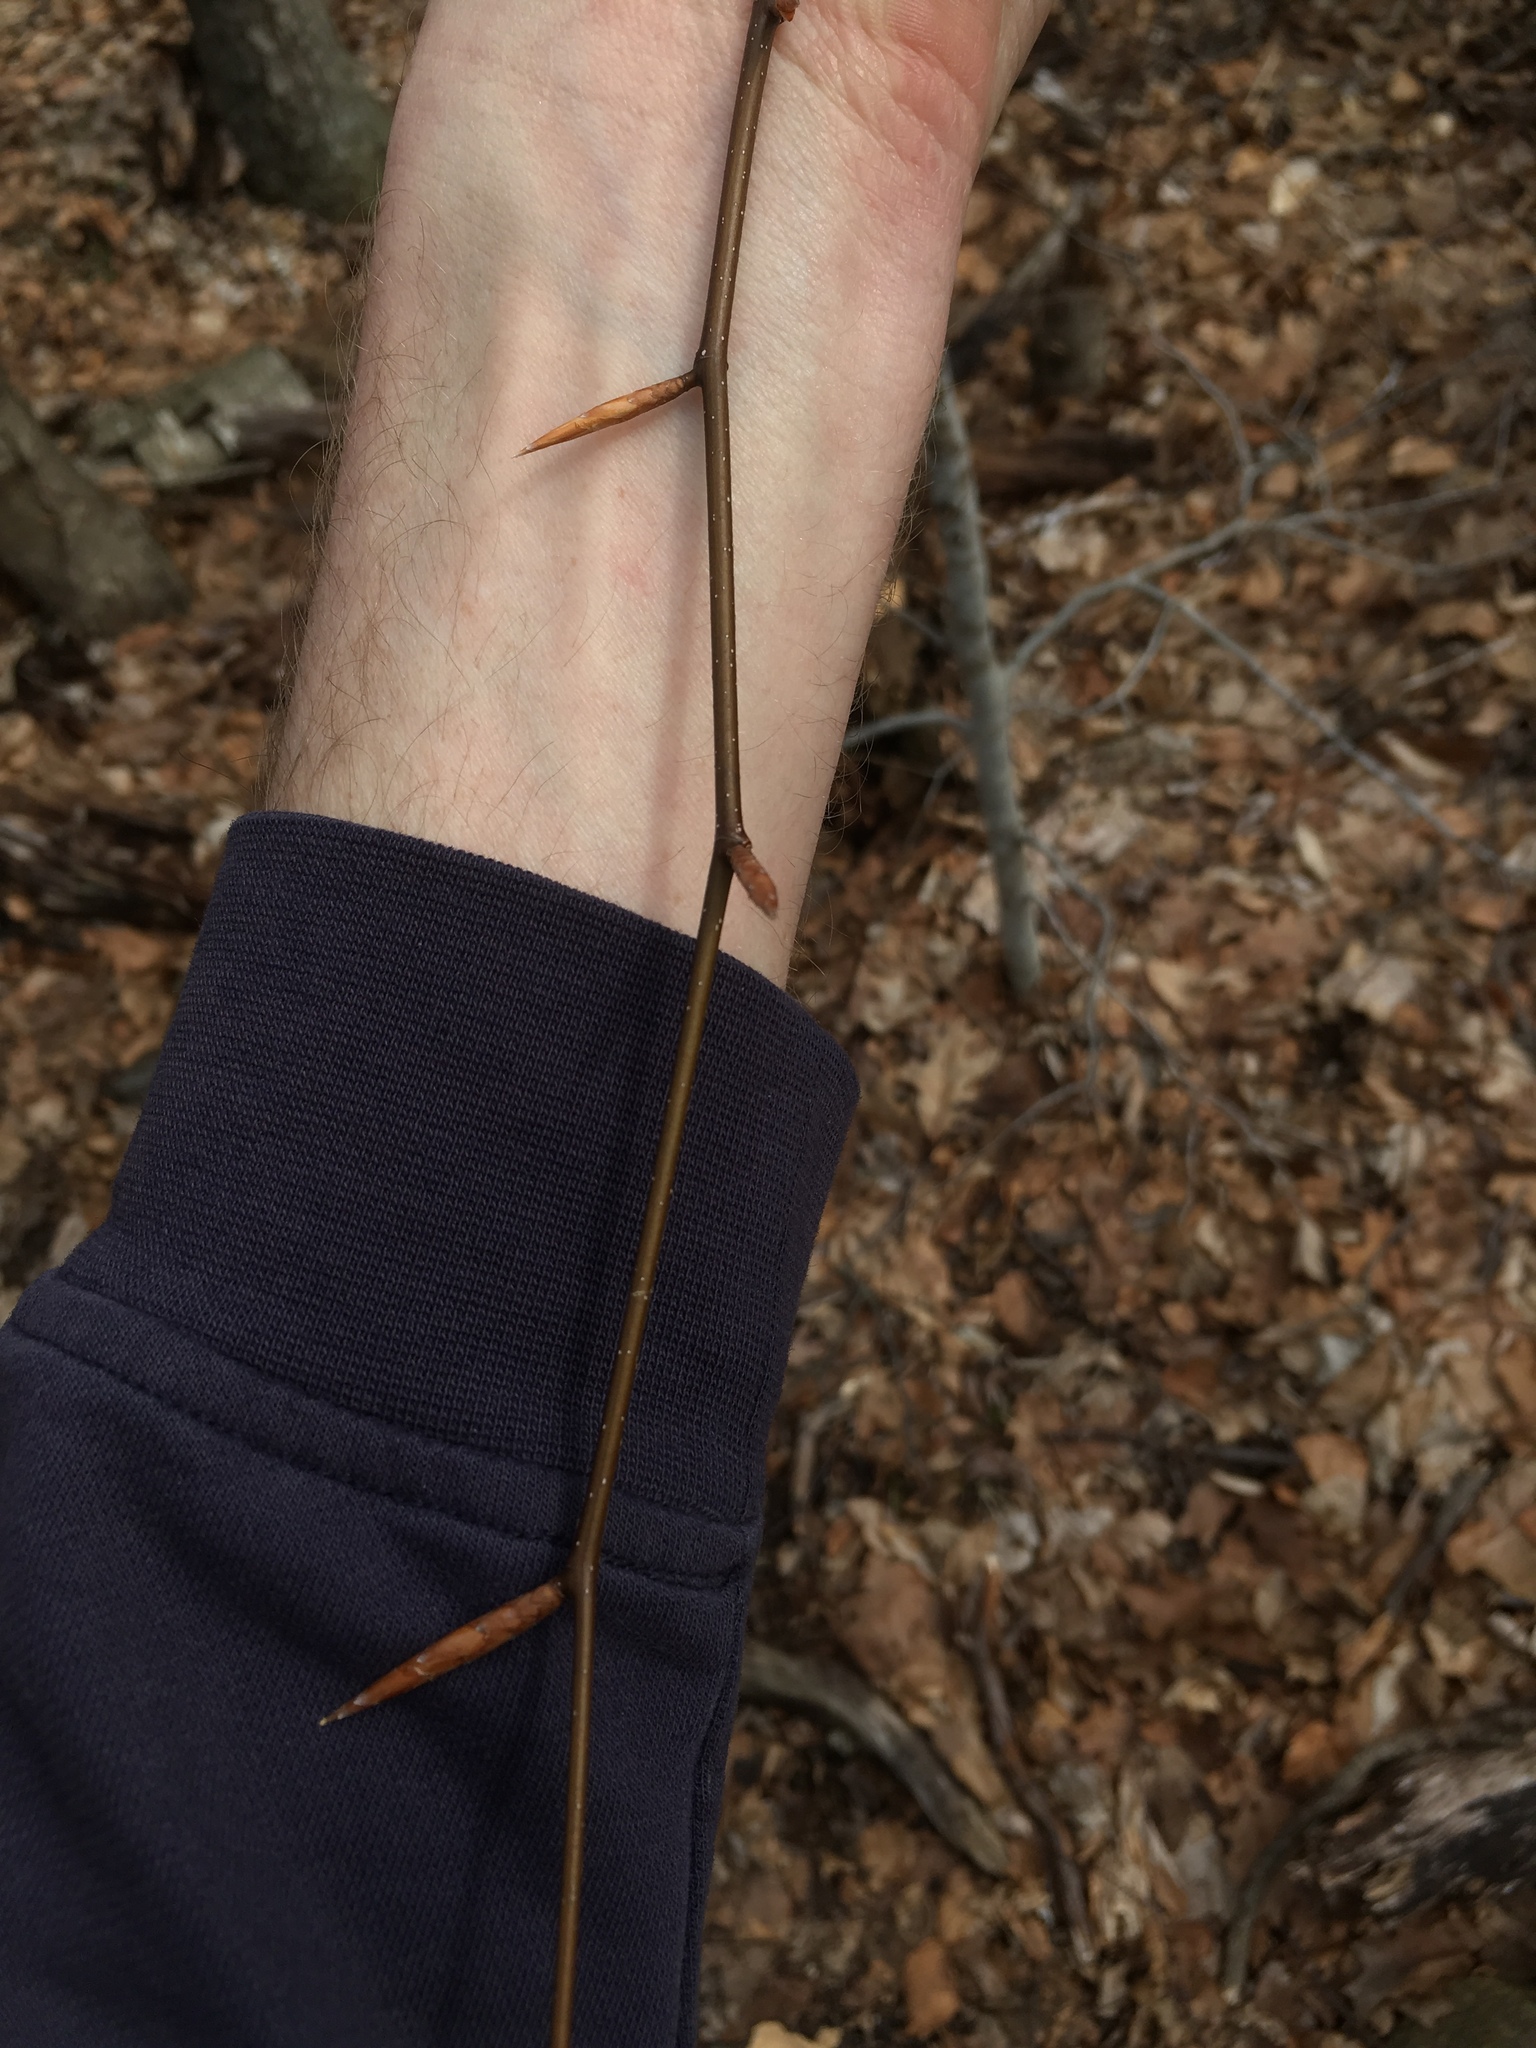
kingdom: Plantae
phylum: Tracheophyta
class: Magnoliopsida
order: Fagales
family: Fagaceae
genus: Fagus
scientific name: Fagus grandifolia
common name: American beech
